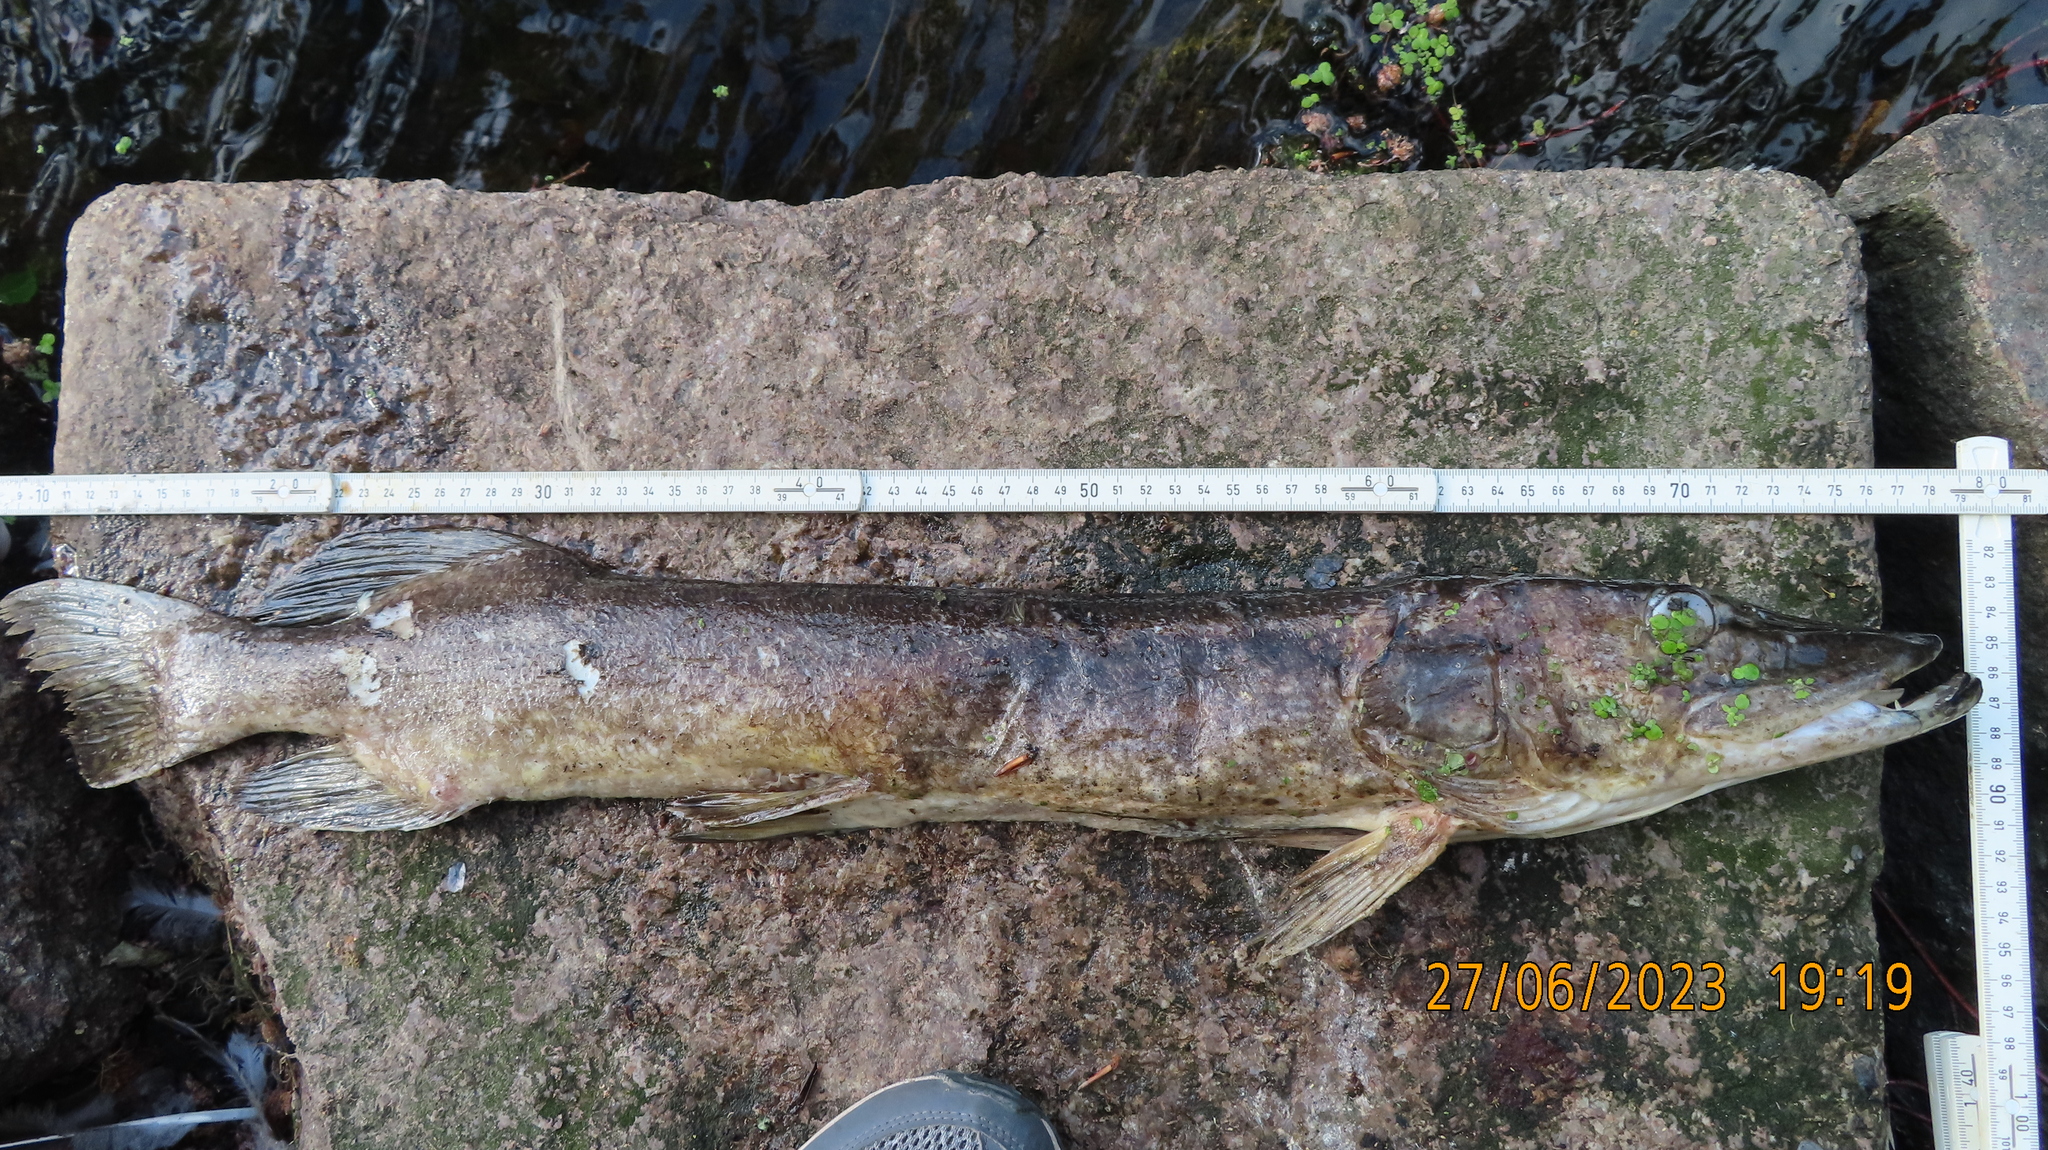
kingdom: Animalia
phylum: Chordata
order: Esociformes
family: Esocidae
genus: Esox
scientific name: Esox lucius
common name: Northern pike
